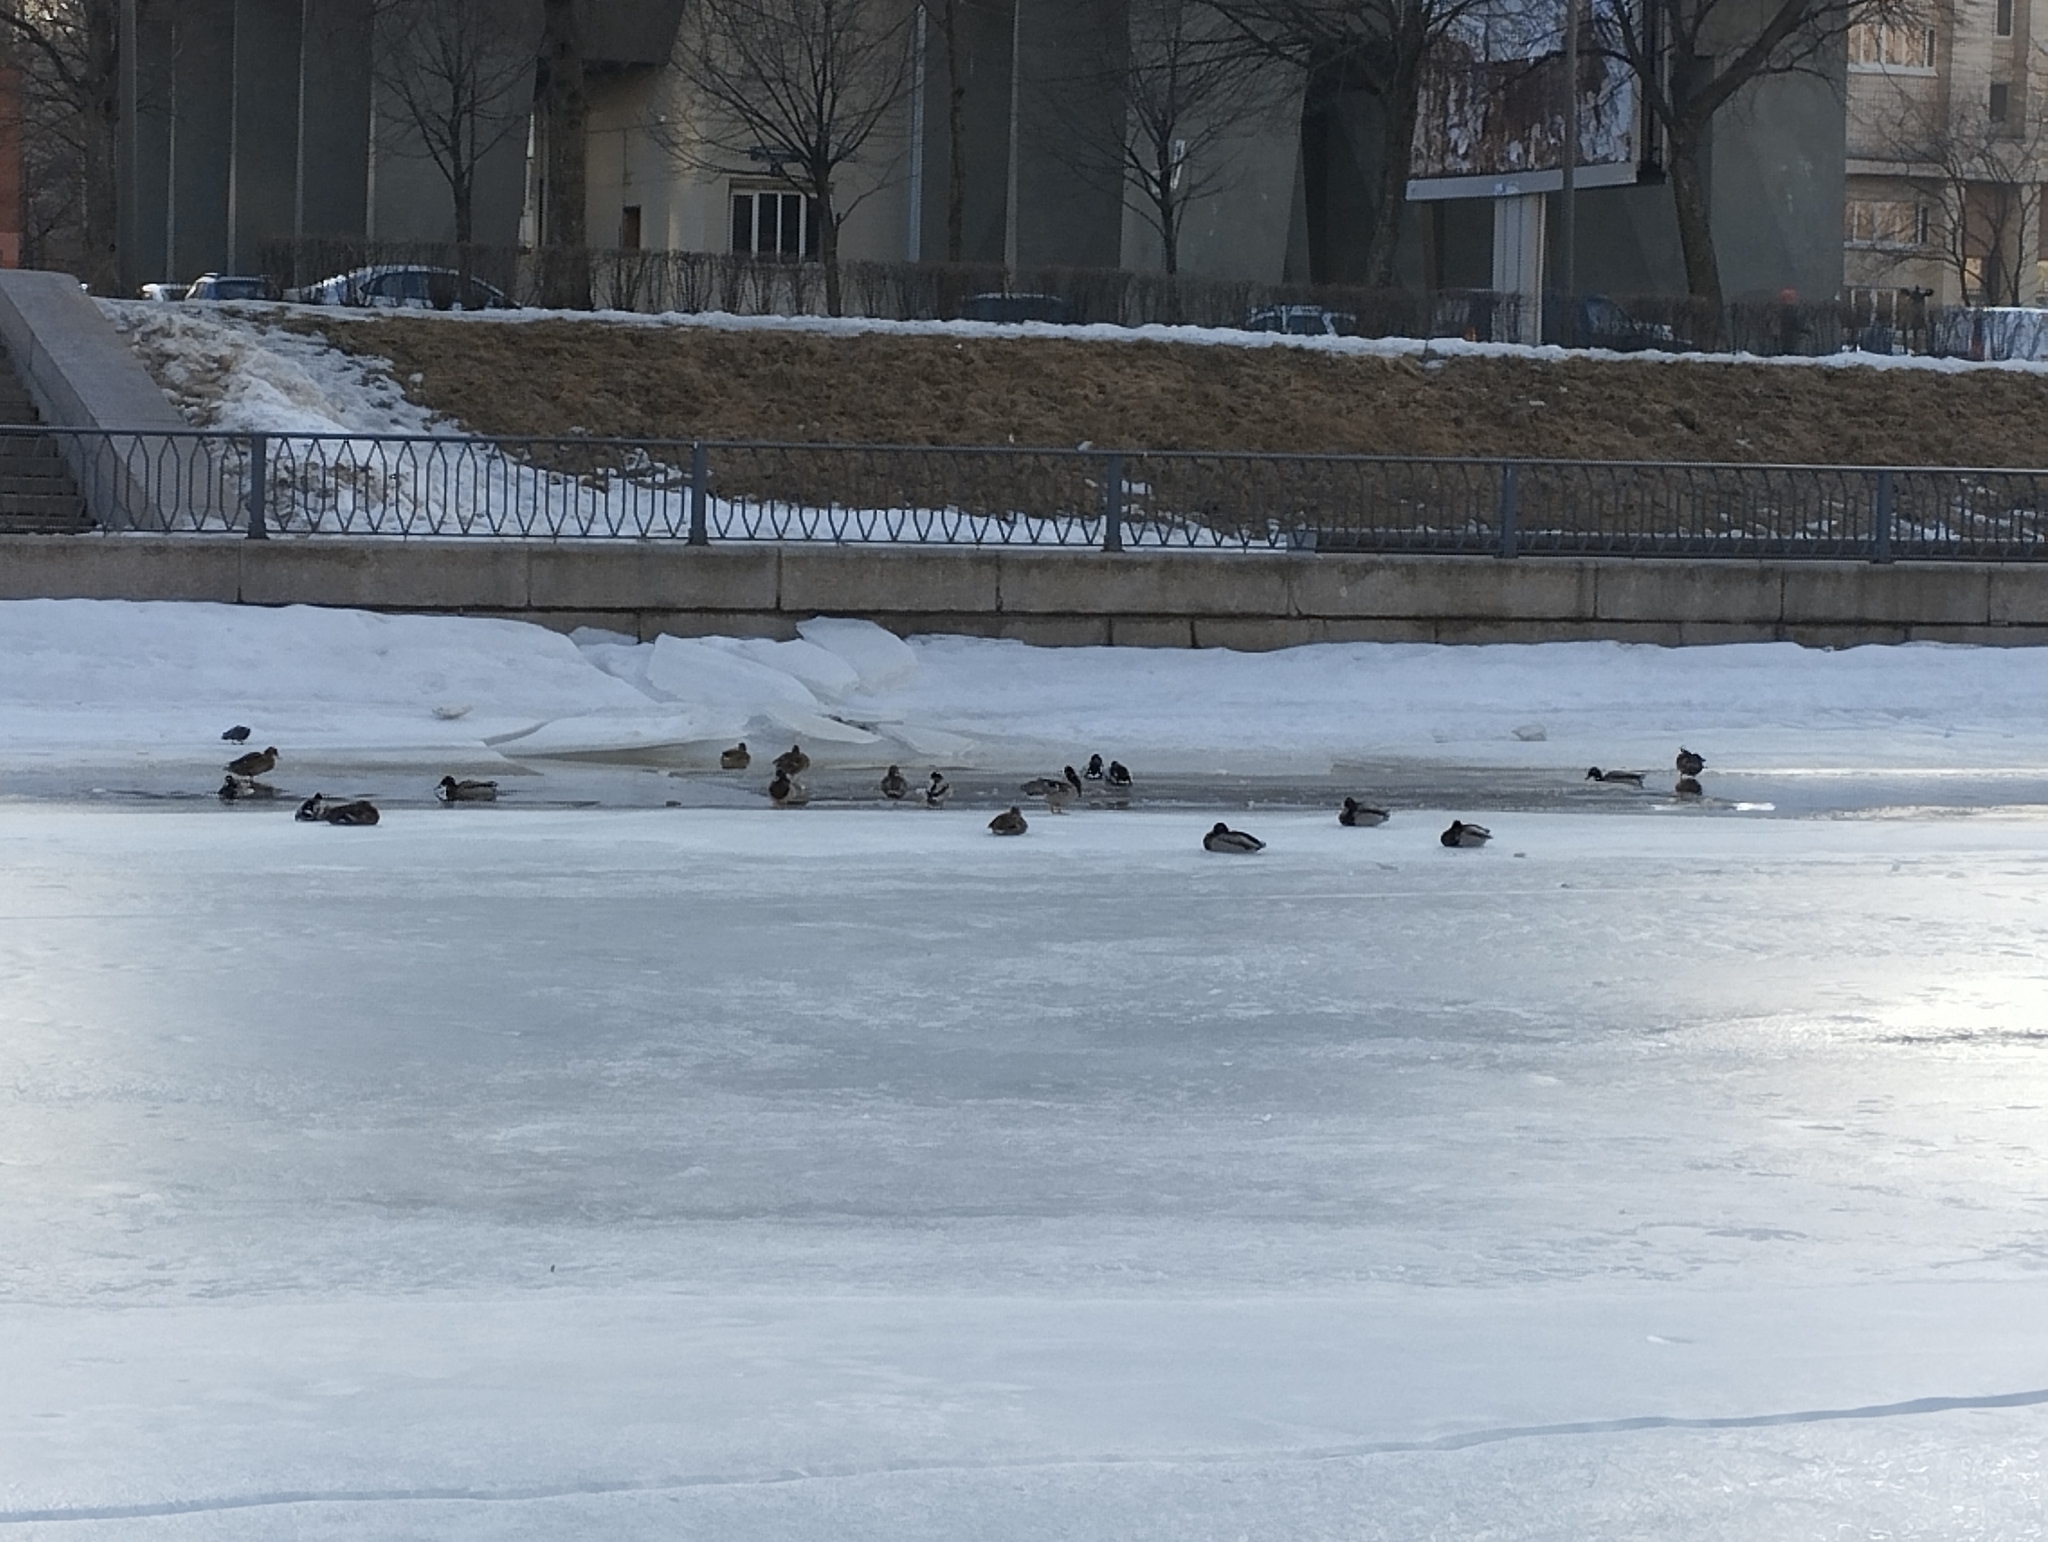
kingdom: Animalia
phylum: Chordata
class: Aves
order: Anseriformes
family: Anatidae
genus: Anas
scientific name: Anas platyrhynchos
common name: Mallard
